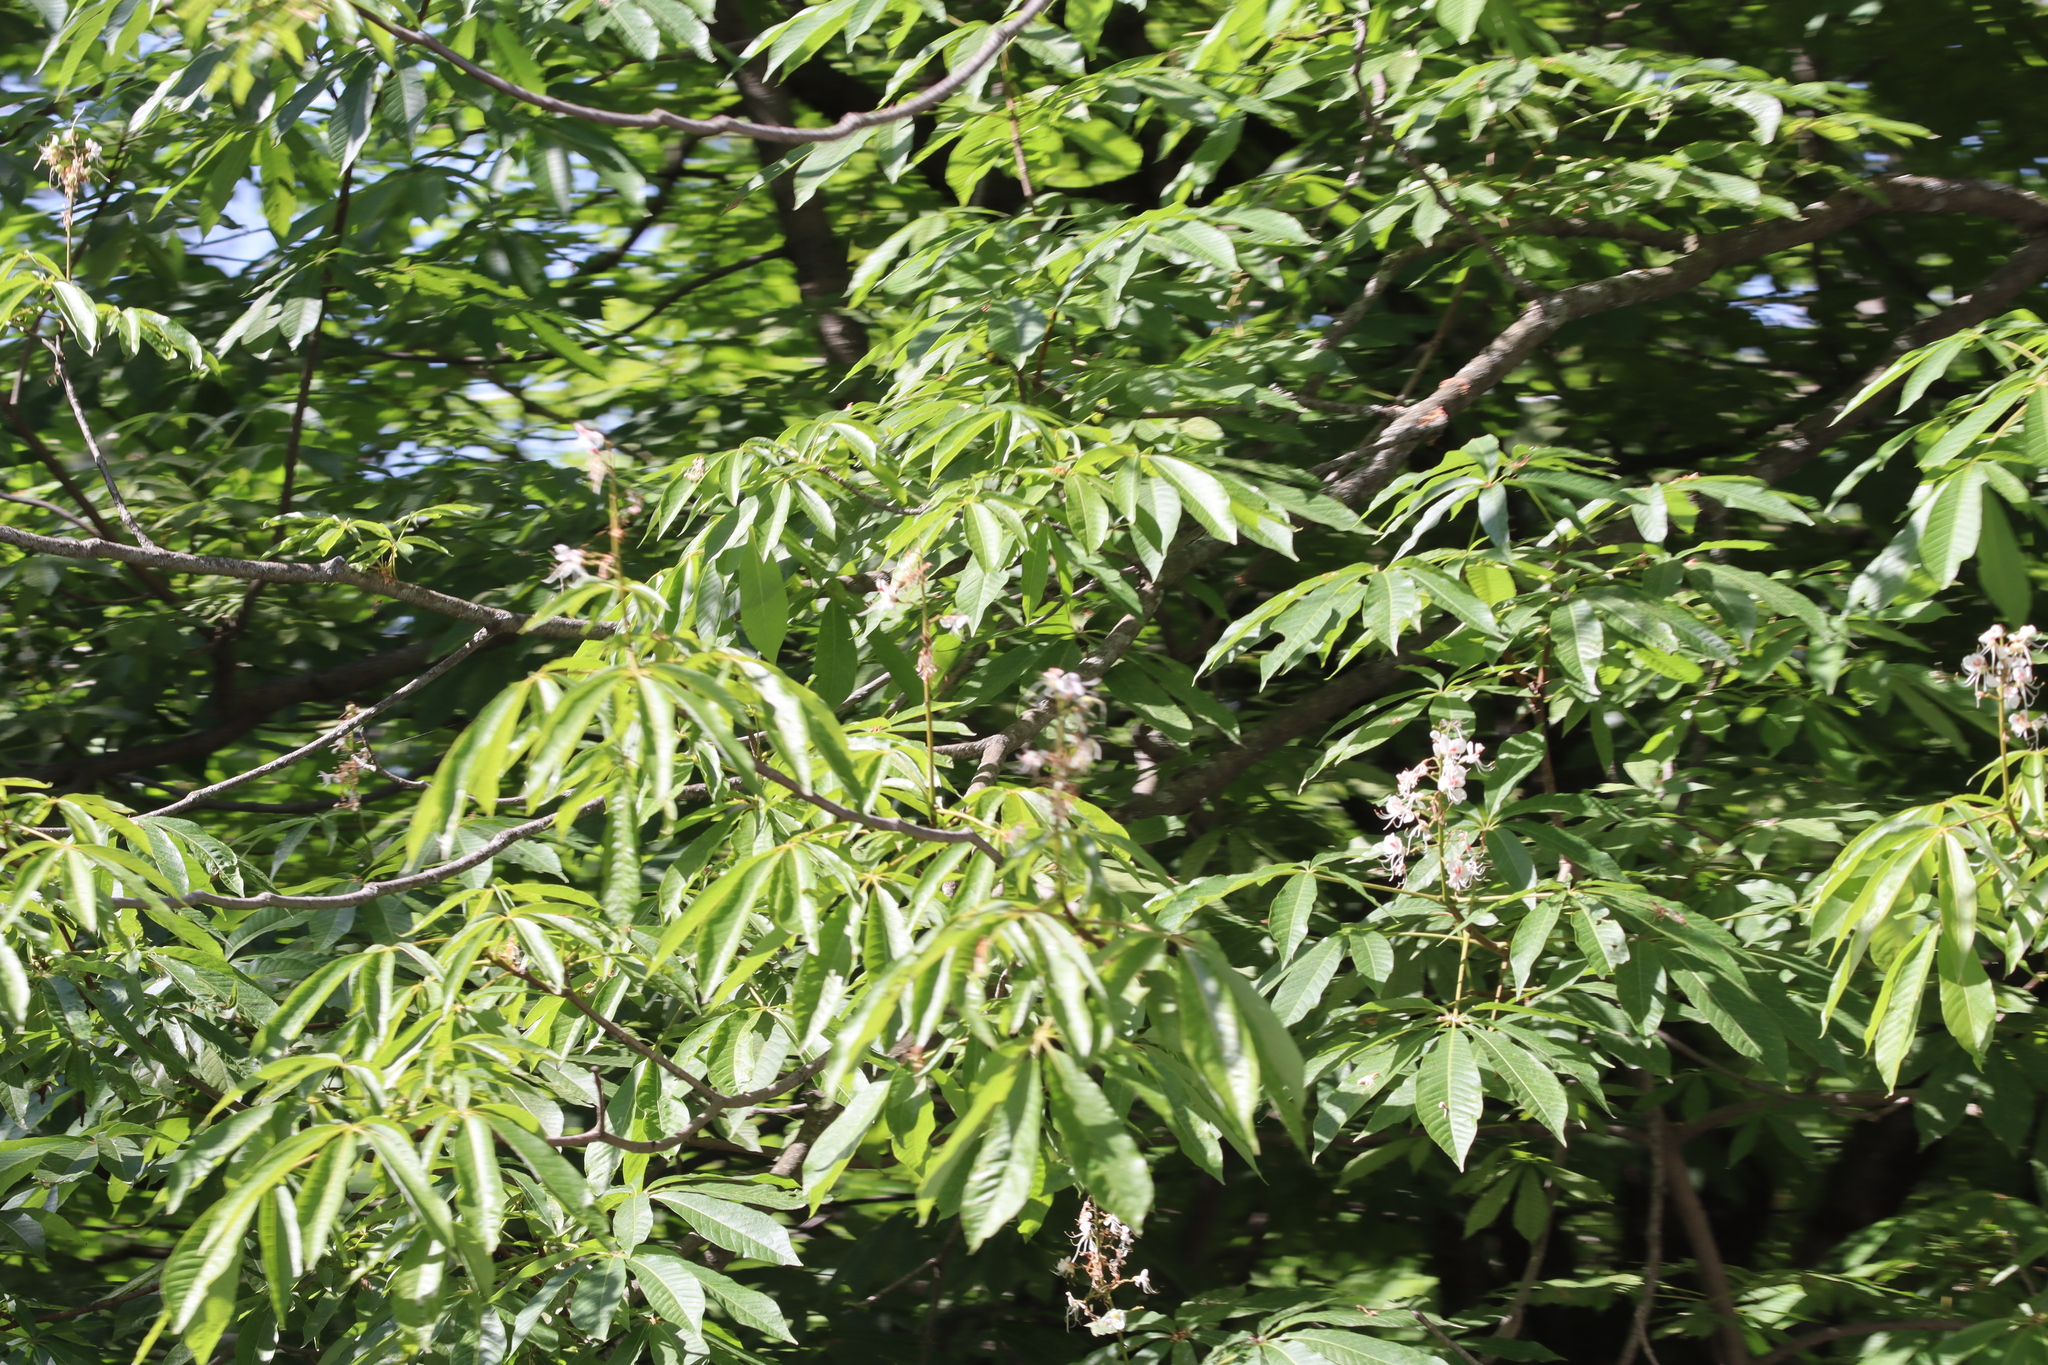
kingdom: Plantae
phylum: Tracheophyta
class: Magnoliopsida
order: Sapindales
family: Sapindaceae
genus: Aesculus
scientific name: Aesculus indica
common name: Indian horse-chestnut
